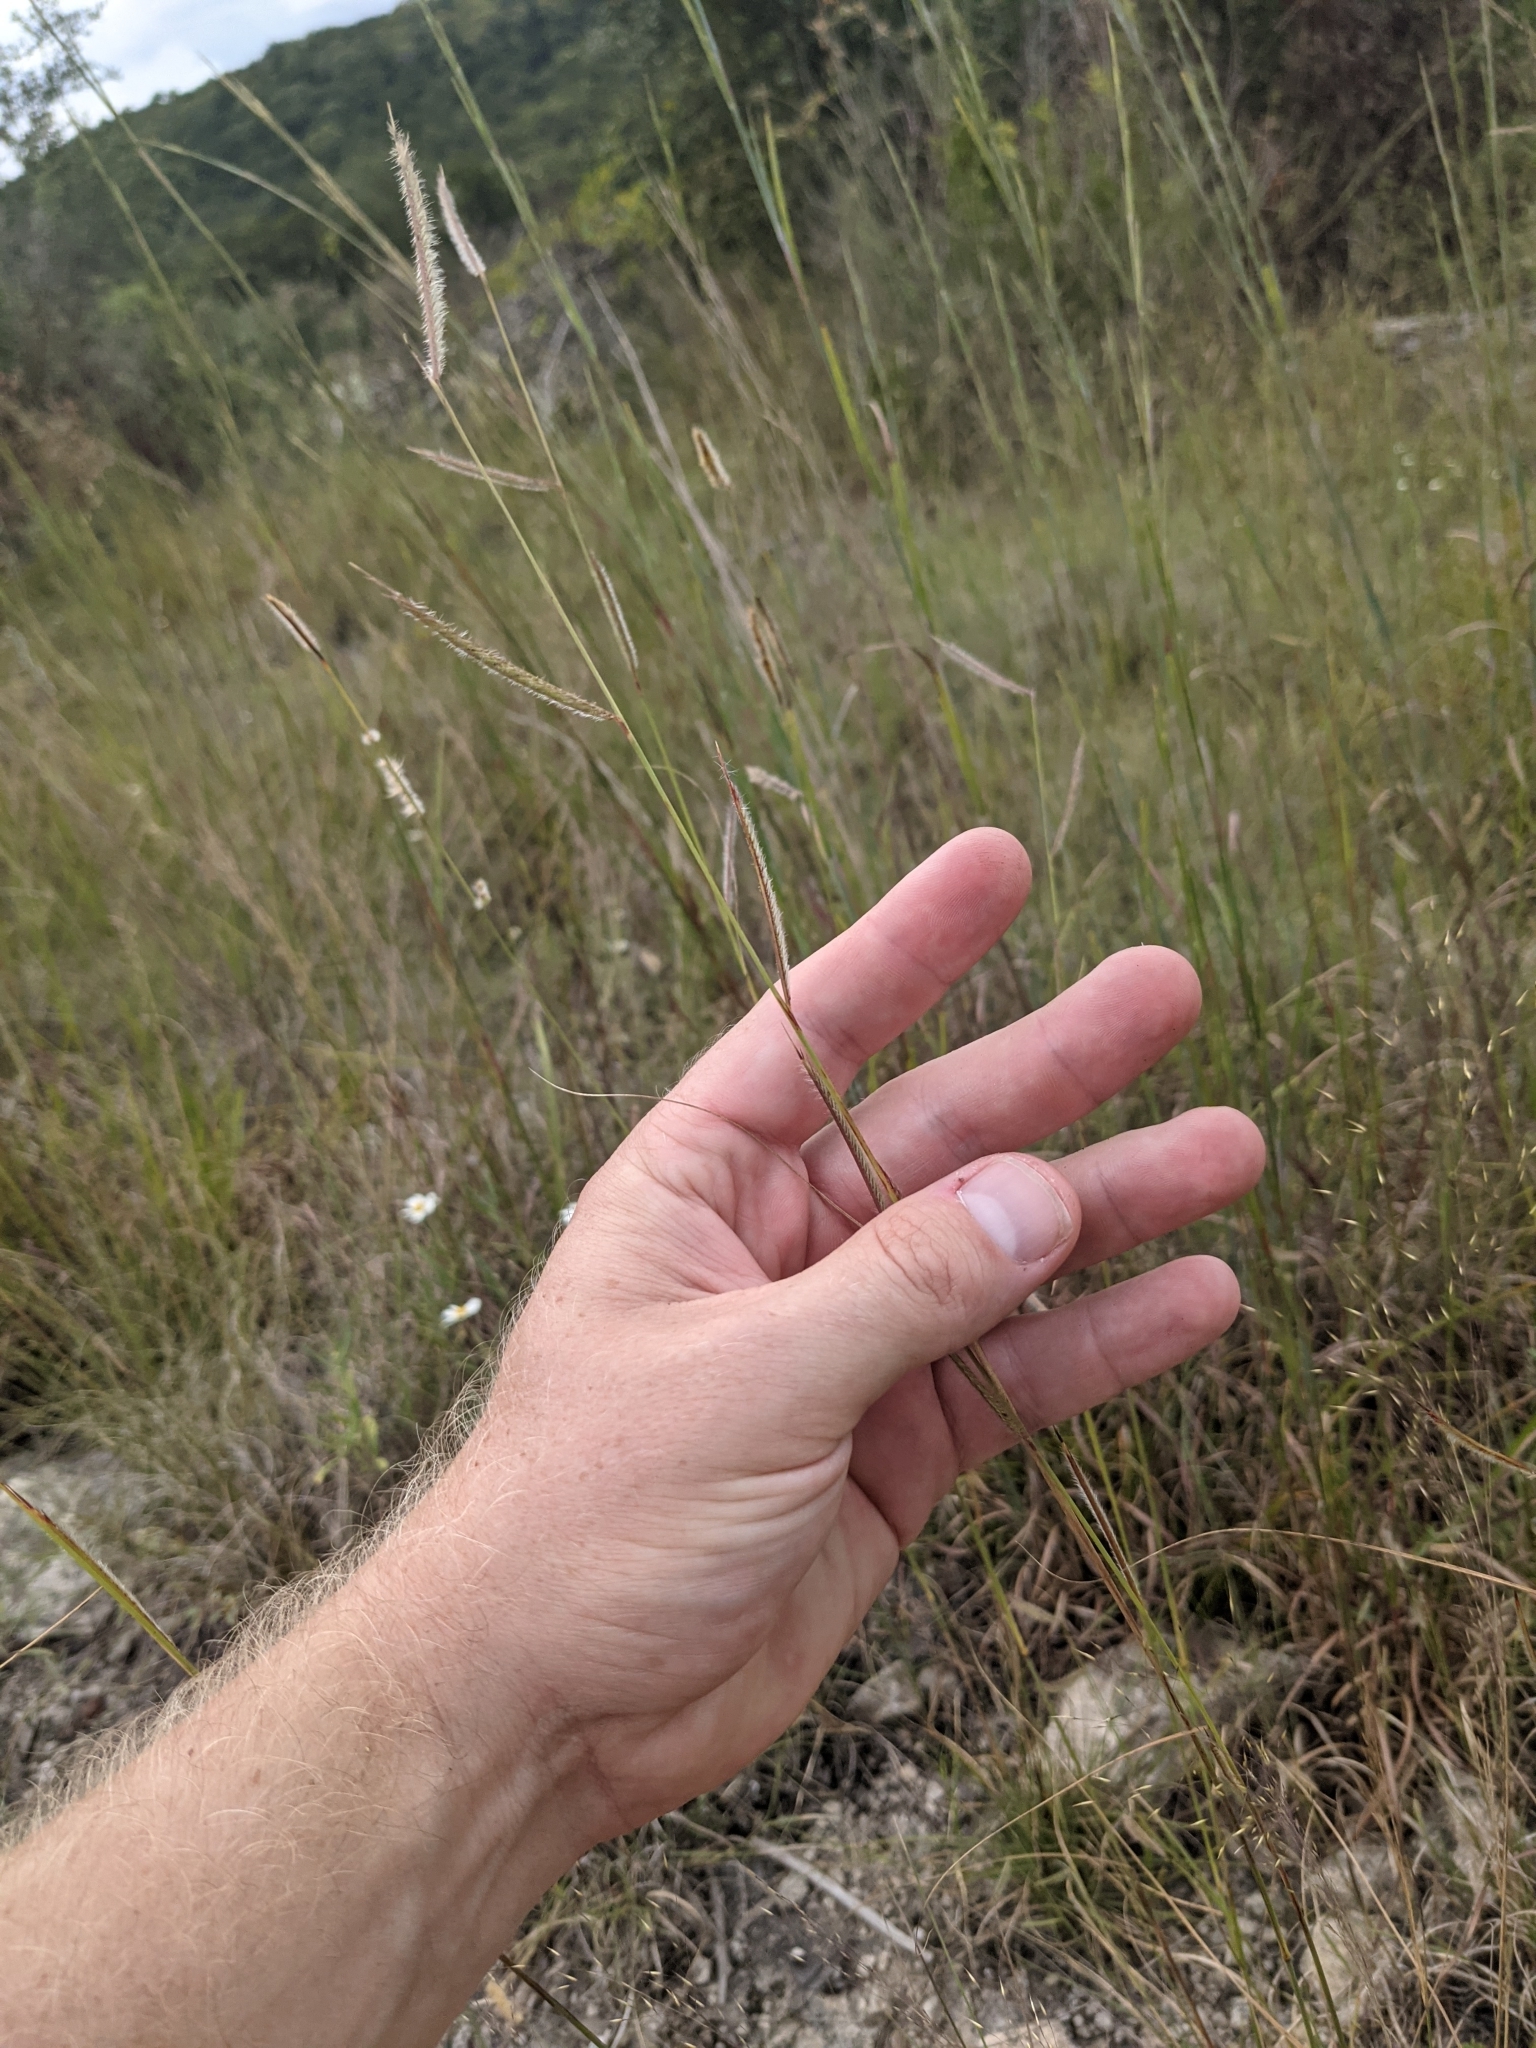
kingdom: Plantae
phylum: Tracheophyta
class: Liliopsida
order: Poales
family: Poaceae
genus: Bouteloua
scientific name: Bouteloua pectinata
